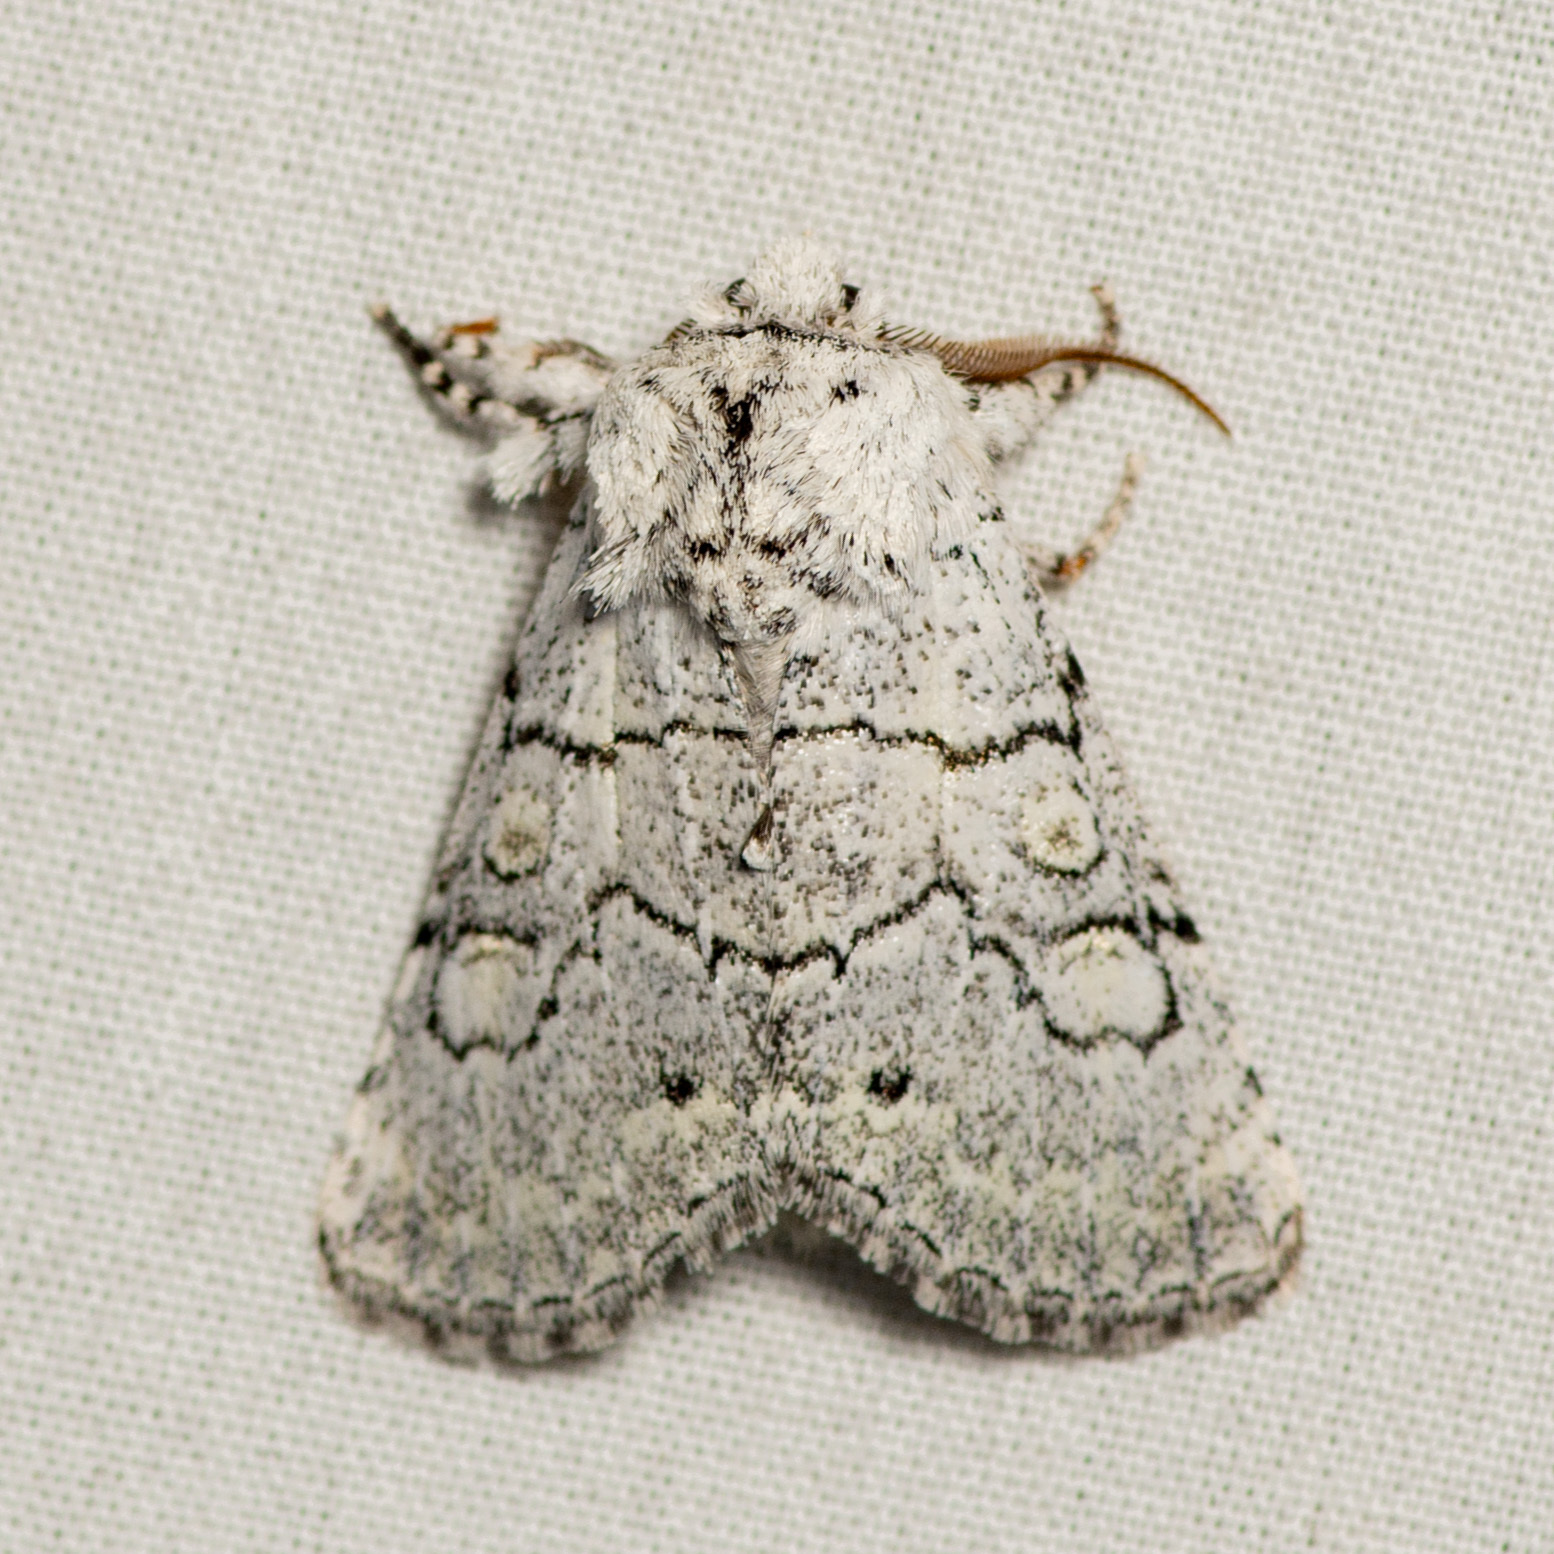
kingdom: Animalia
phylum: Arthropoda
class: Insecta
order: Lepidoptera
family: Noctuidae
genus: Charadra
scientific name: Charadra dispulsa
